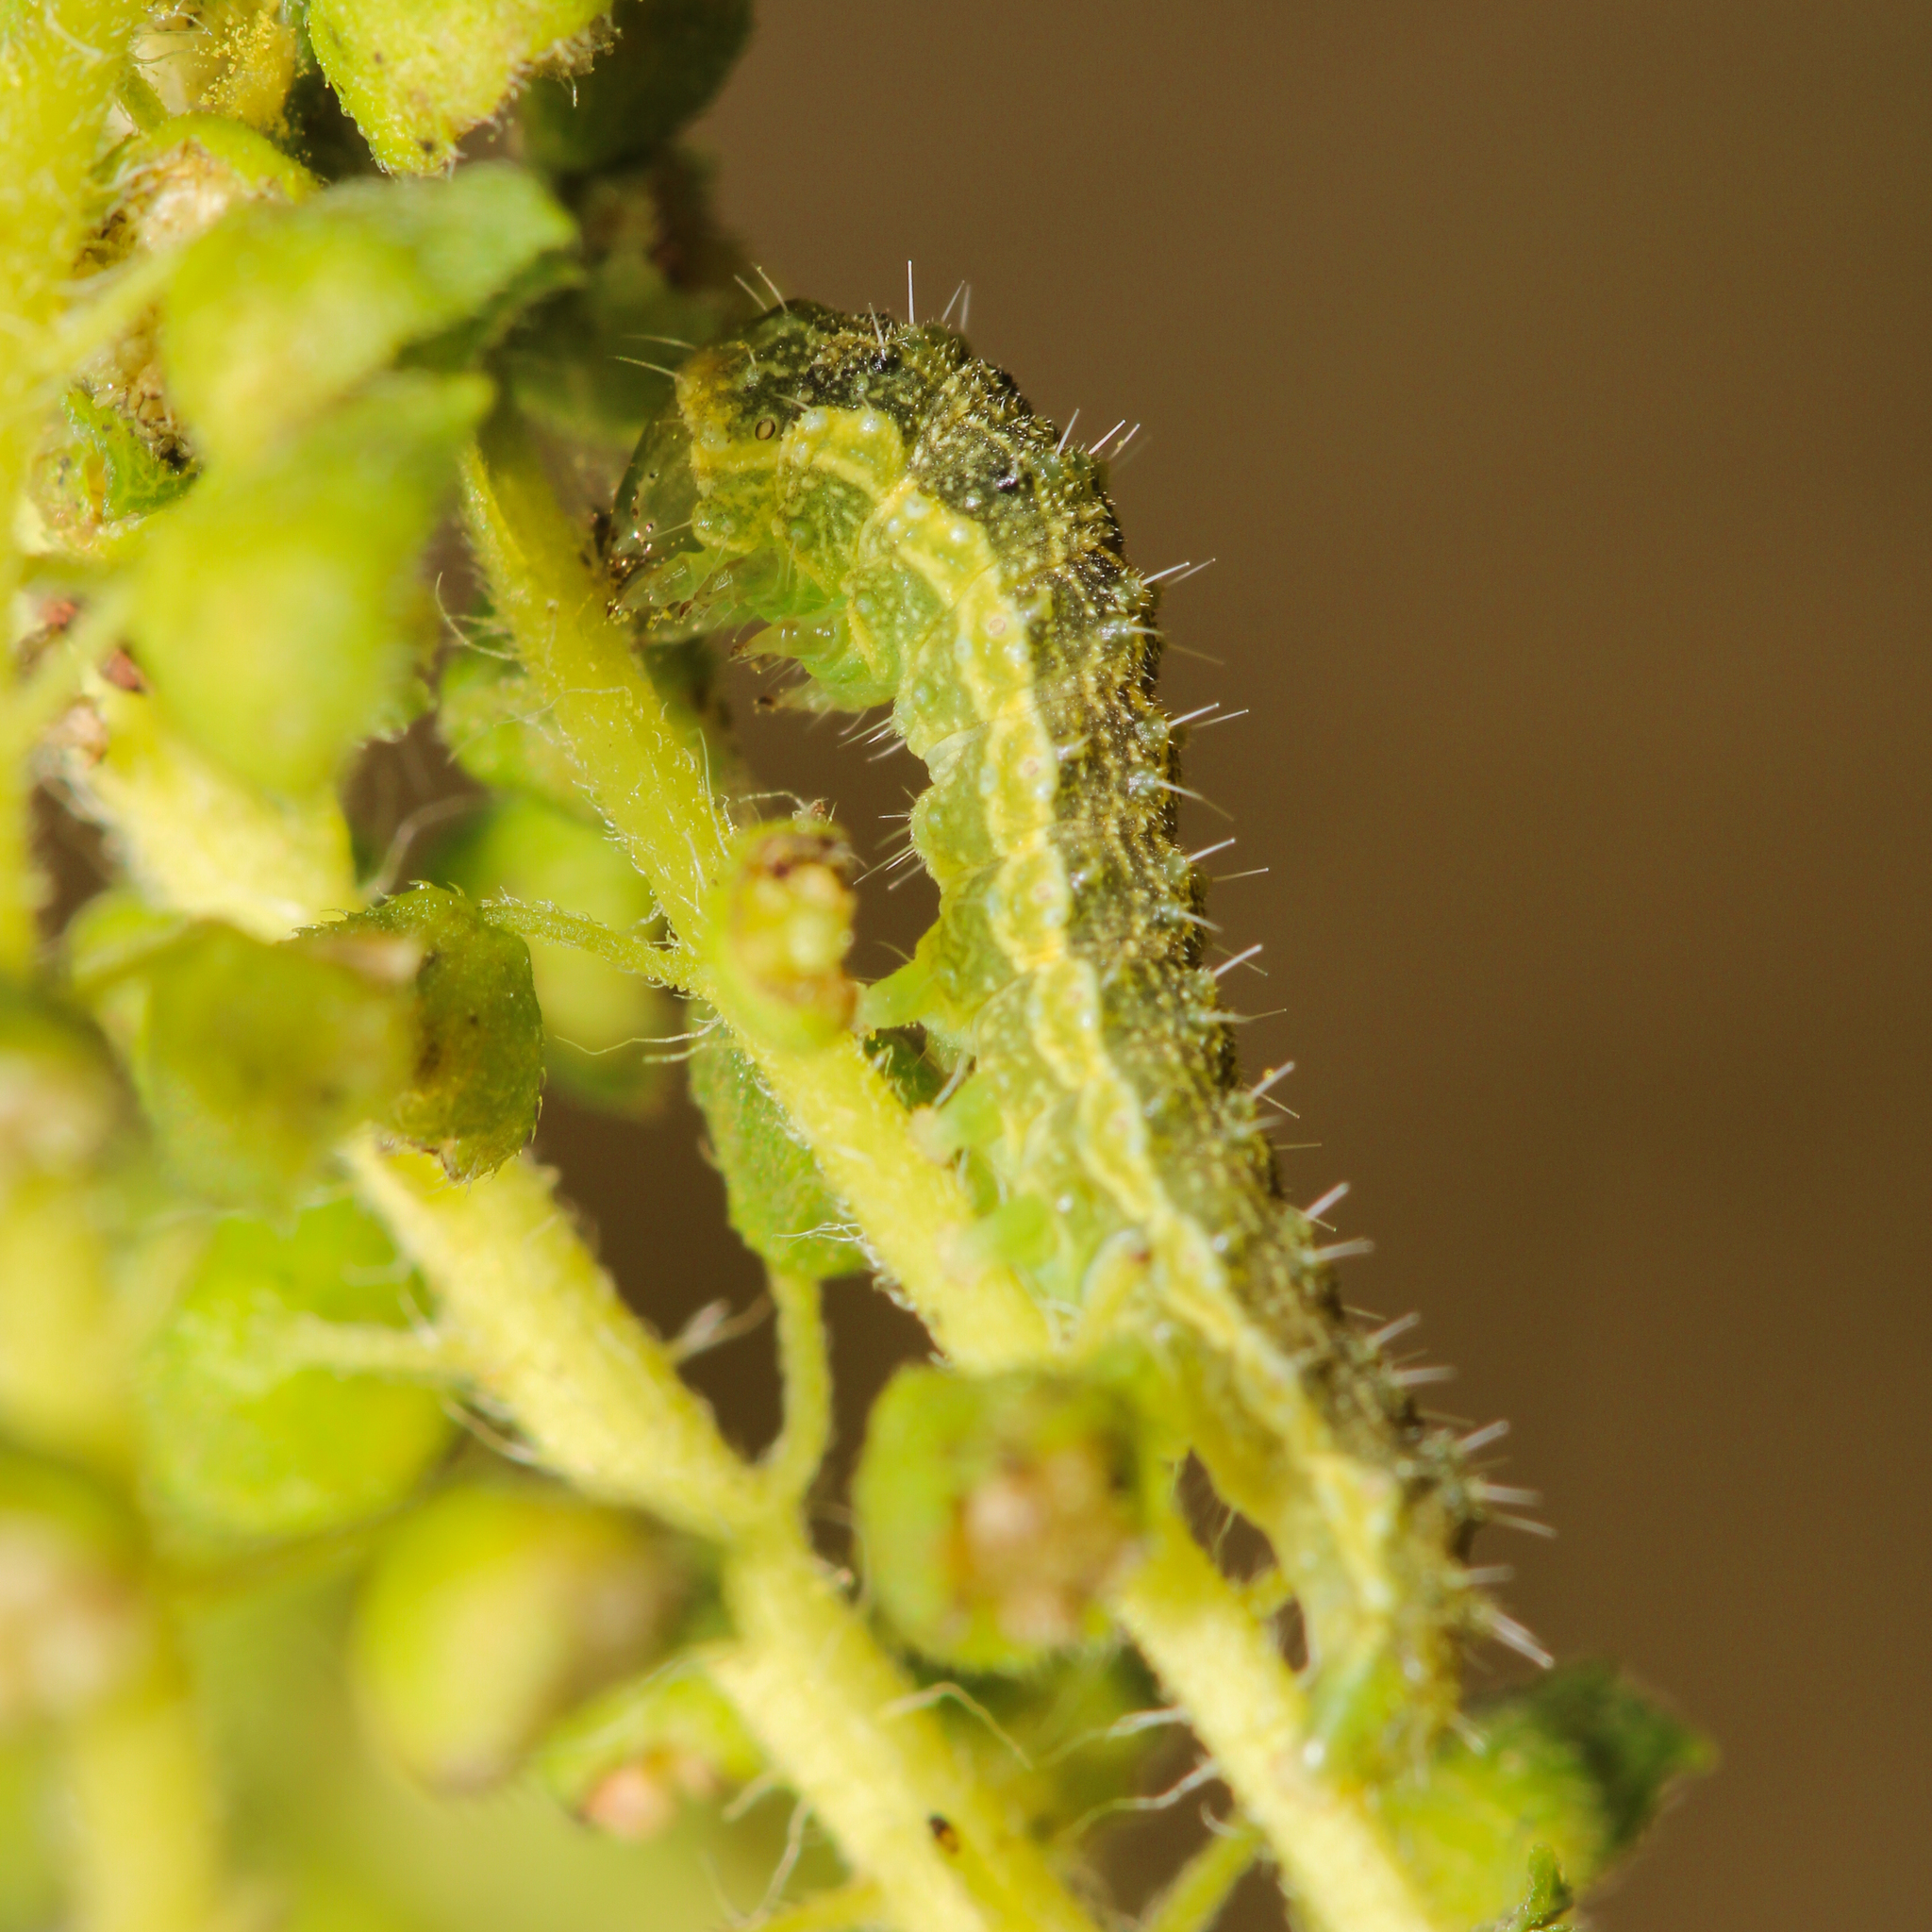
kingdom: Animalia
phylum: Arthropoda
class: Insecta
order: Lepidoptera
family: Noctuidae
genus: Schinia
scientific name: Schinia rivulosa
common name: Scarce meal-moth
